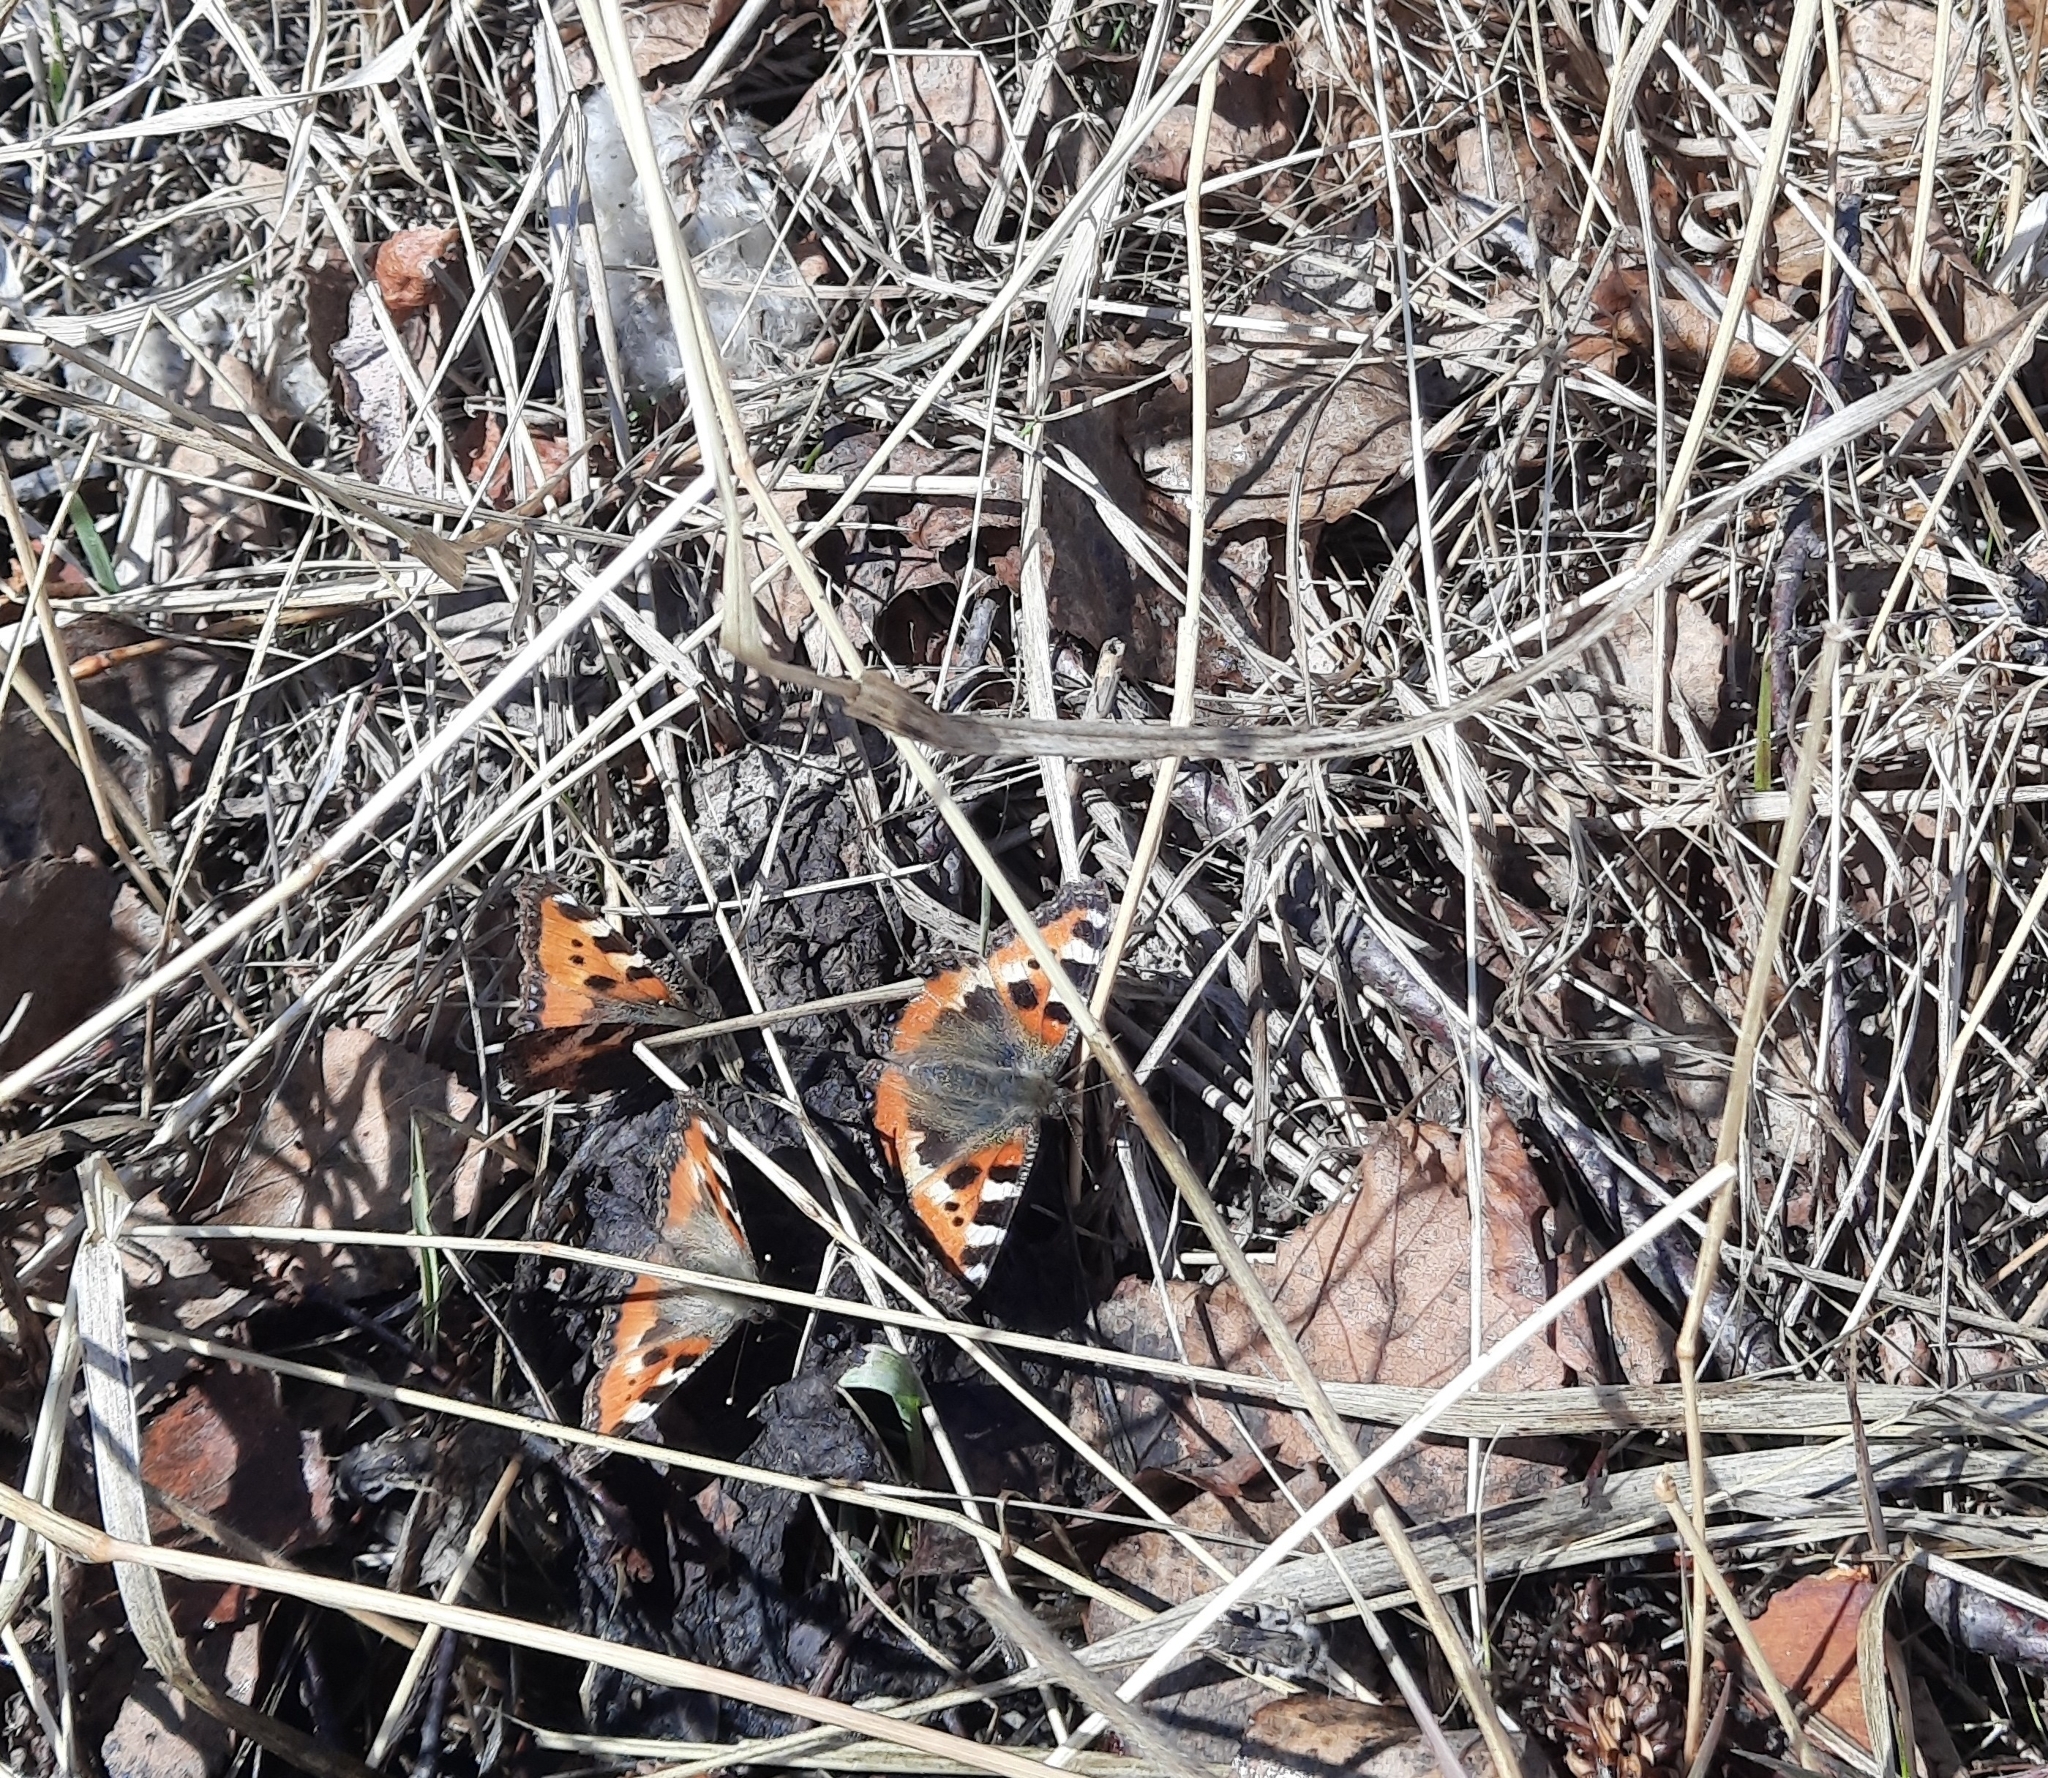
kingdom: Animalia
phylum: Arthropoda
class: Insecta
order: Lepidoptera
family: Nymphalidae
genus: Aglais
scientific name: Aglais urticae
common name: Small tortoiseshell
